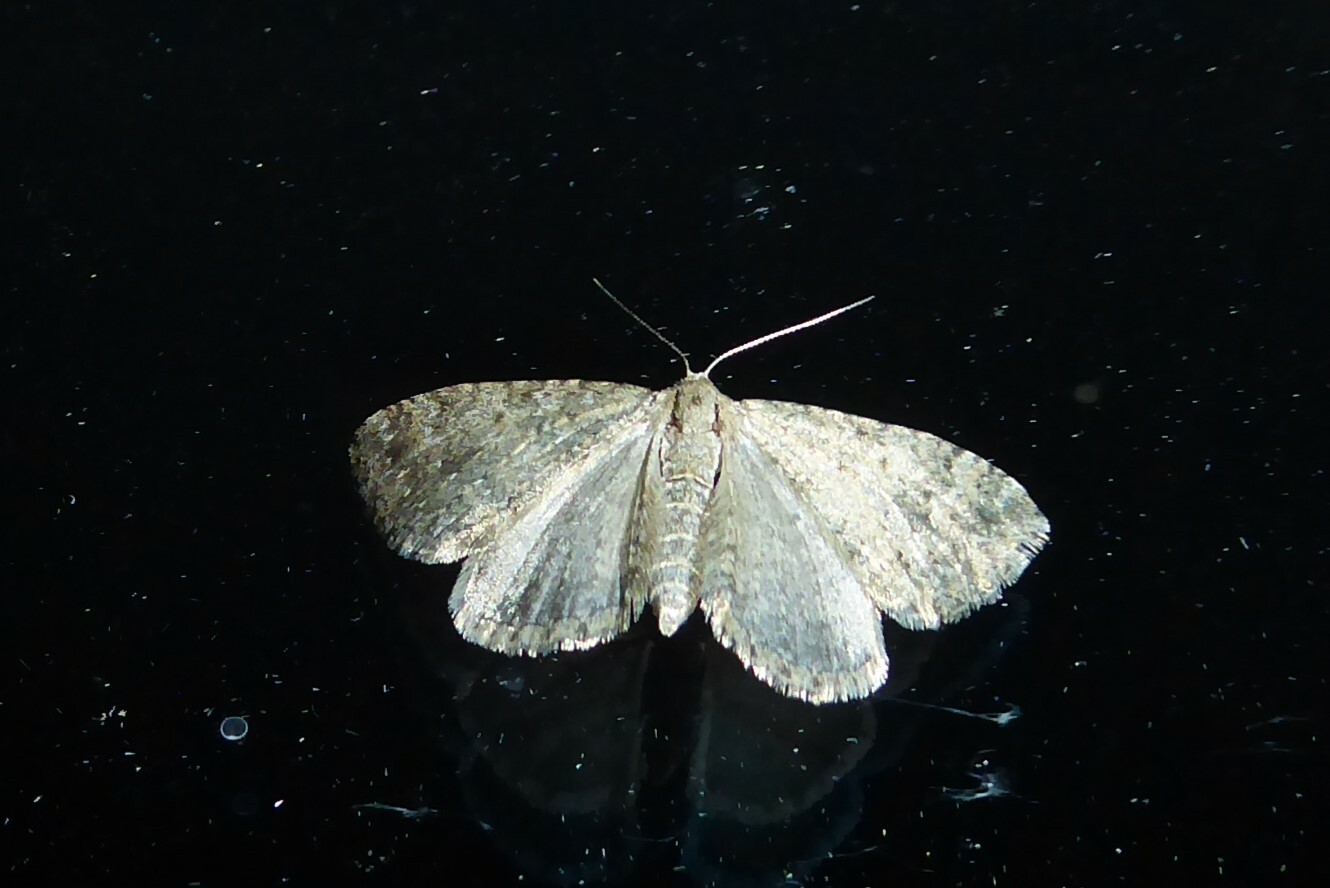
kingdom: Animalia
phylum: Arthropoda
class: Insecta
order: Lepidoptera
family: Geometridae
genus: Helastia
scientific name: Helastia corcularia
